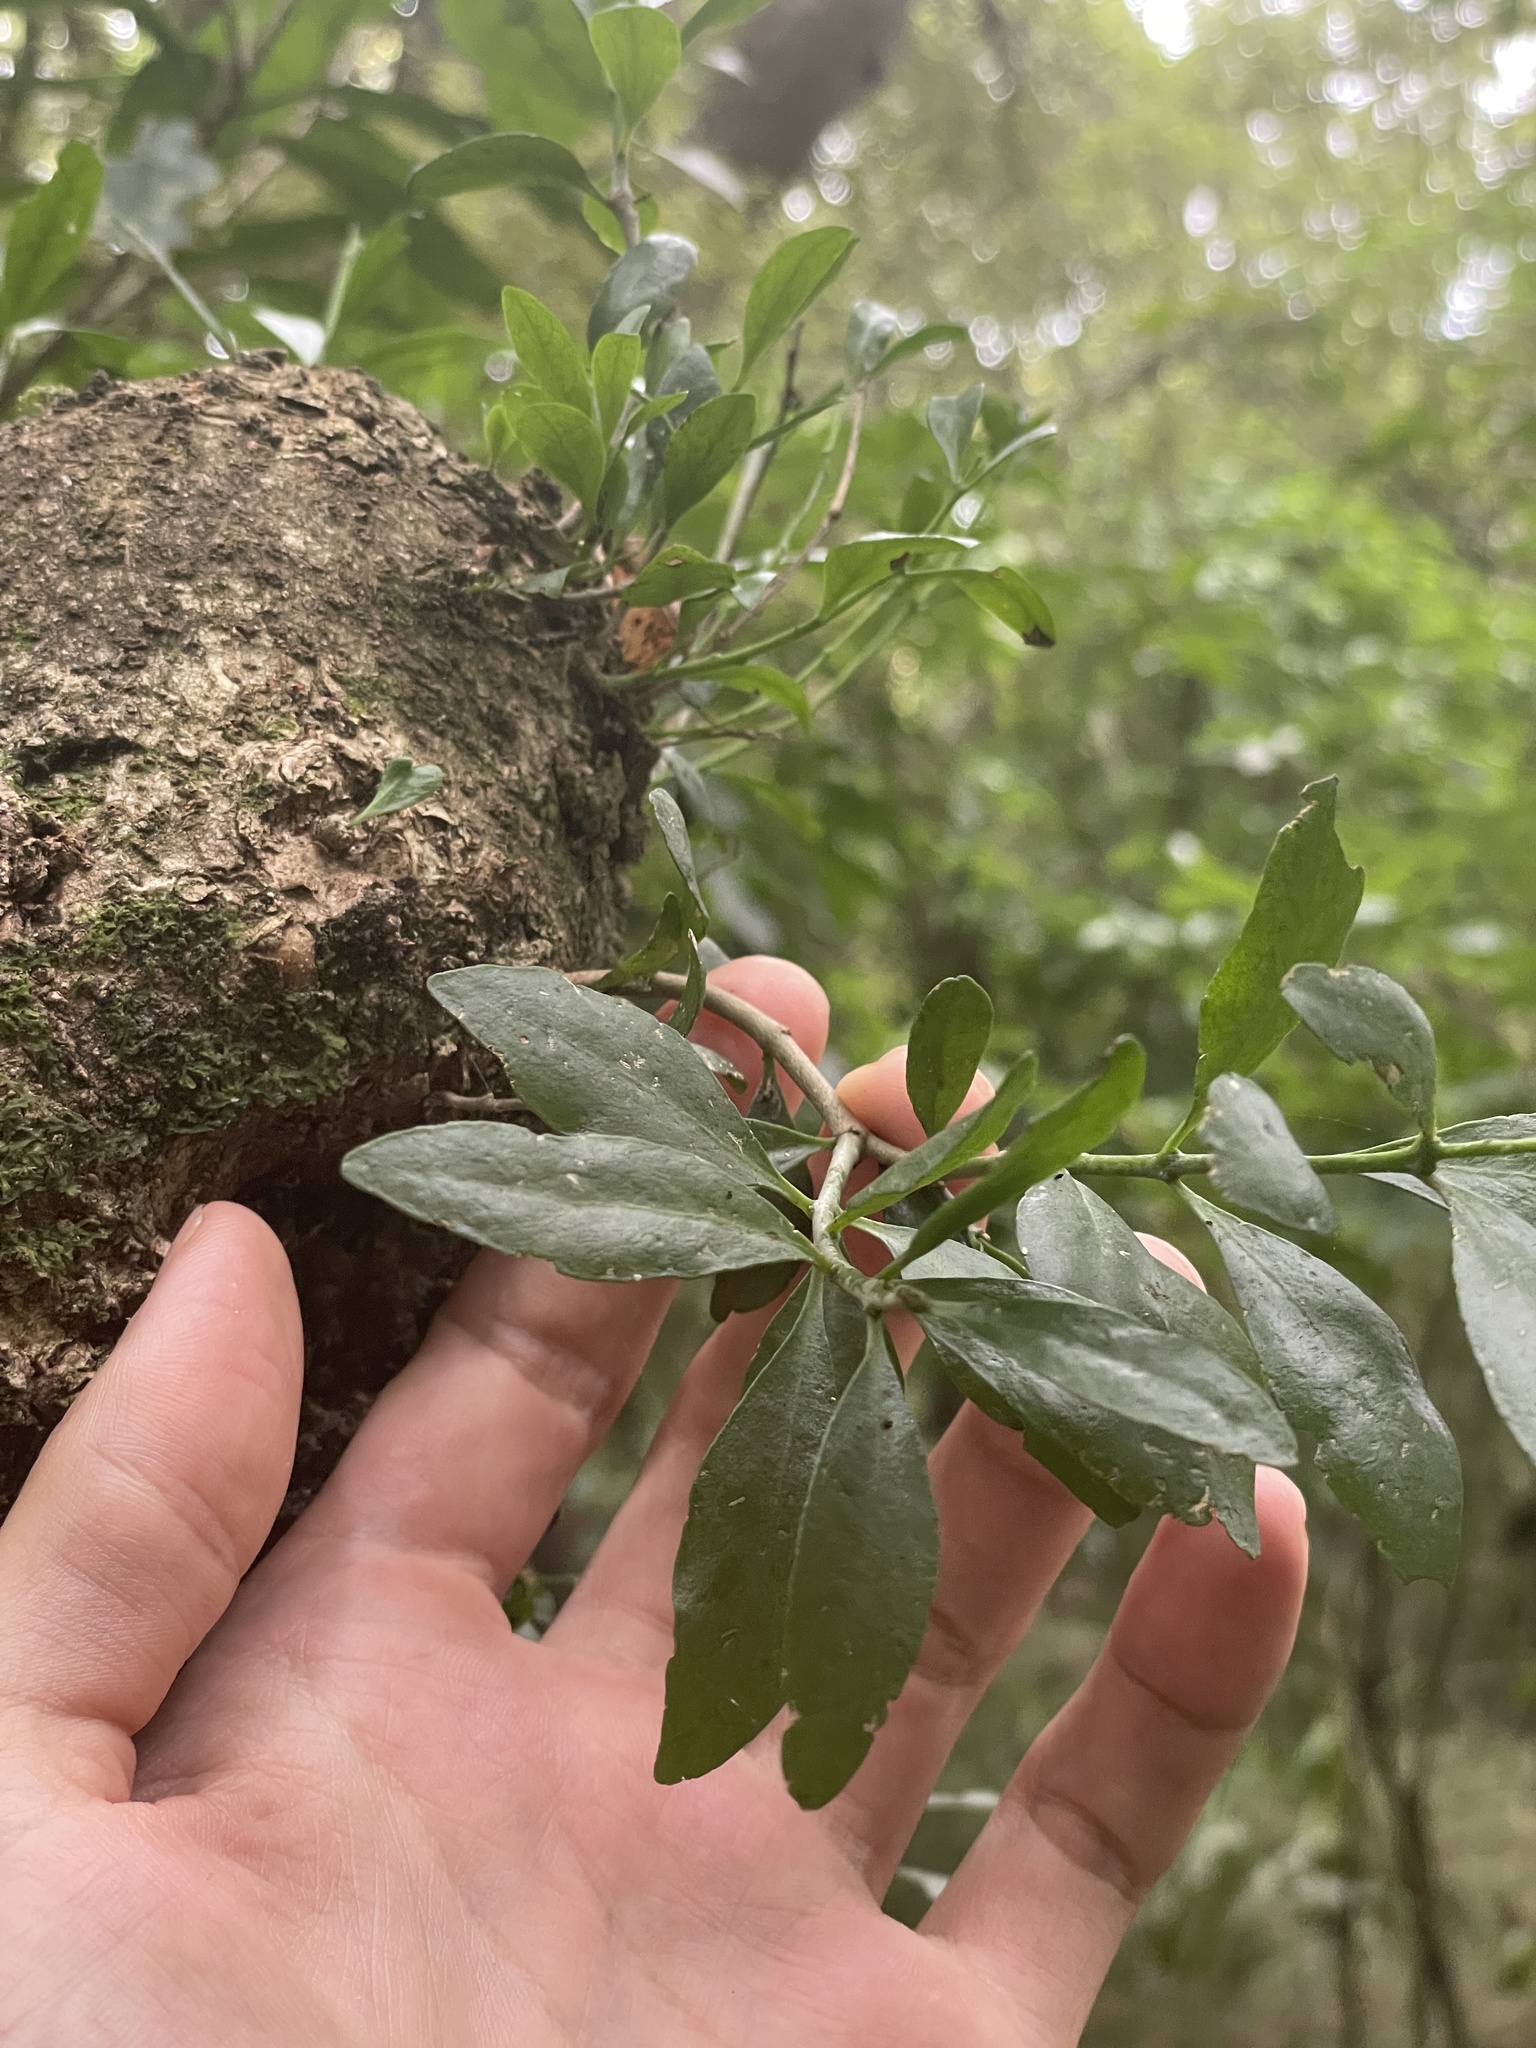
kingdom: Plantae
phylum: Tracheophyta
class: Magnoliopsida
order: Santalales
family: Loranthaceae
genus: Tupeia
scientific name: Tupeia antarctica
